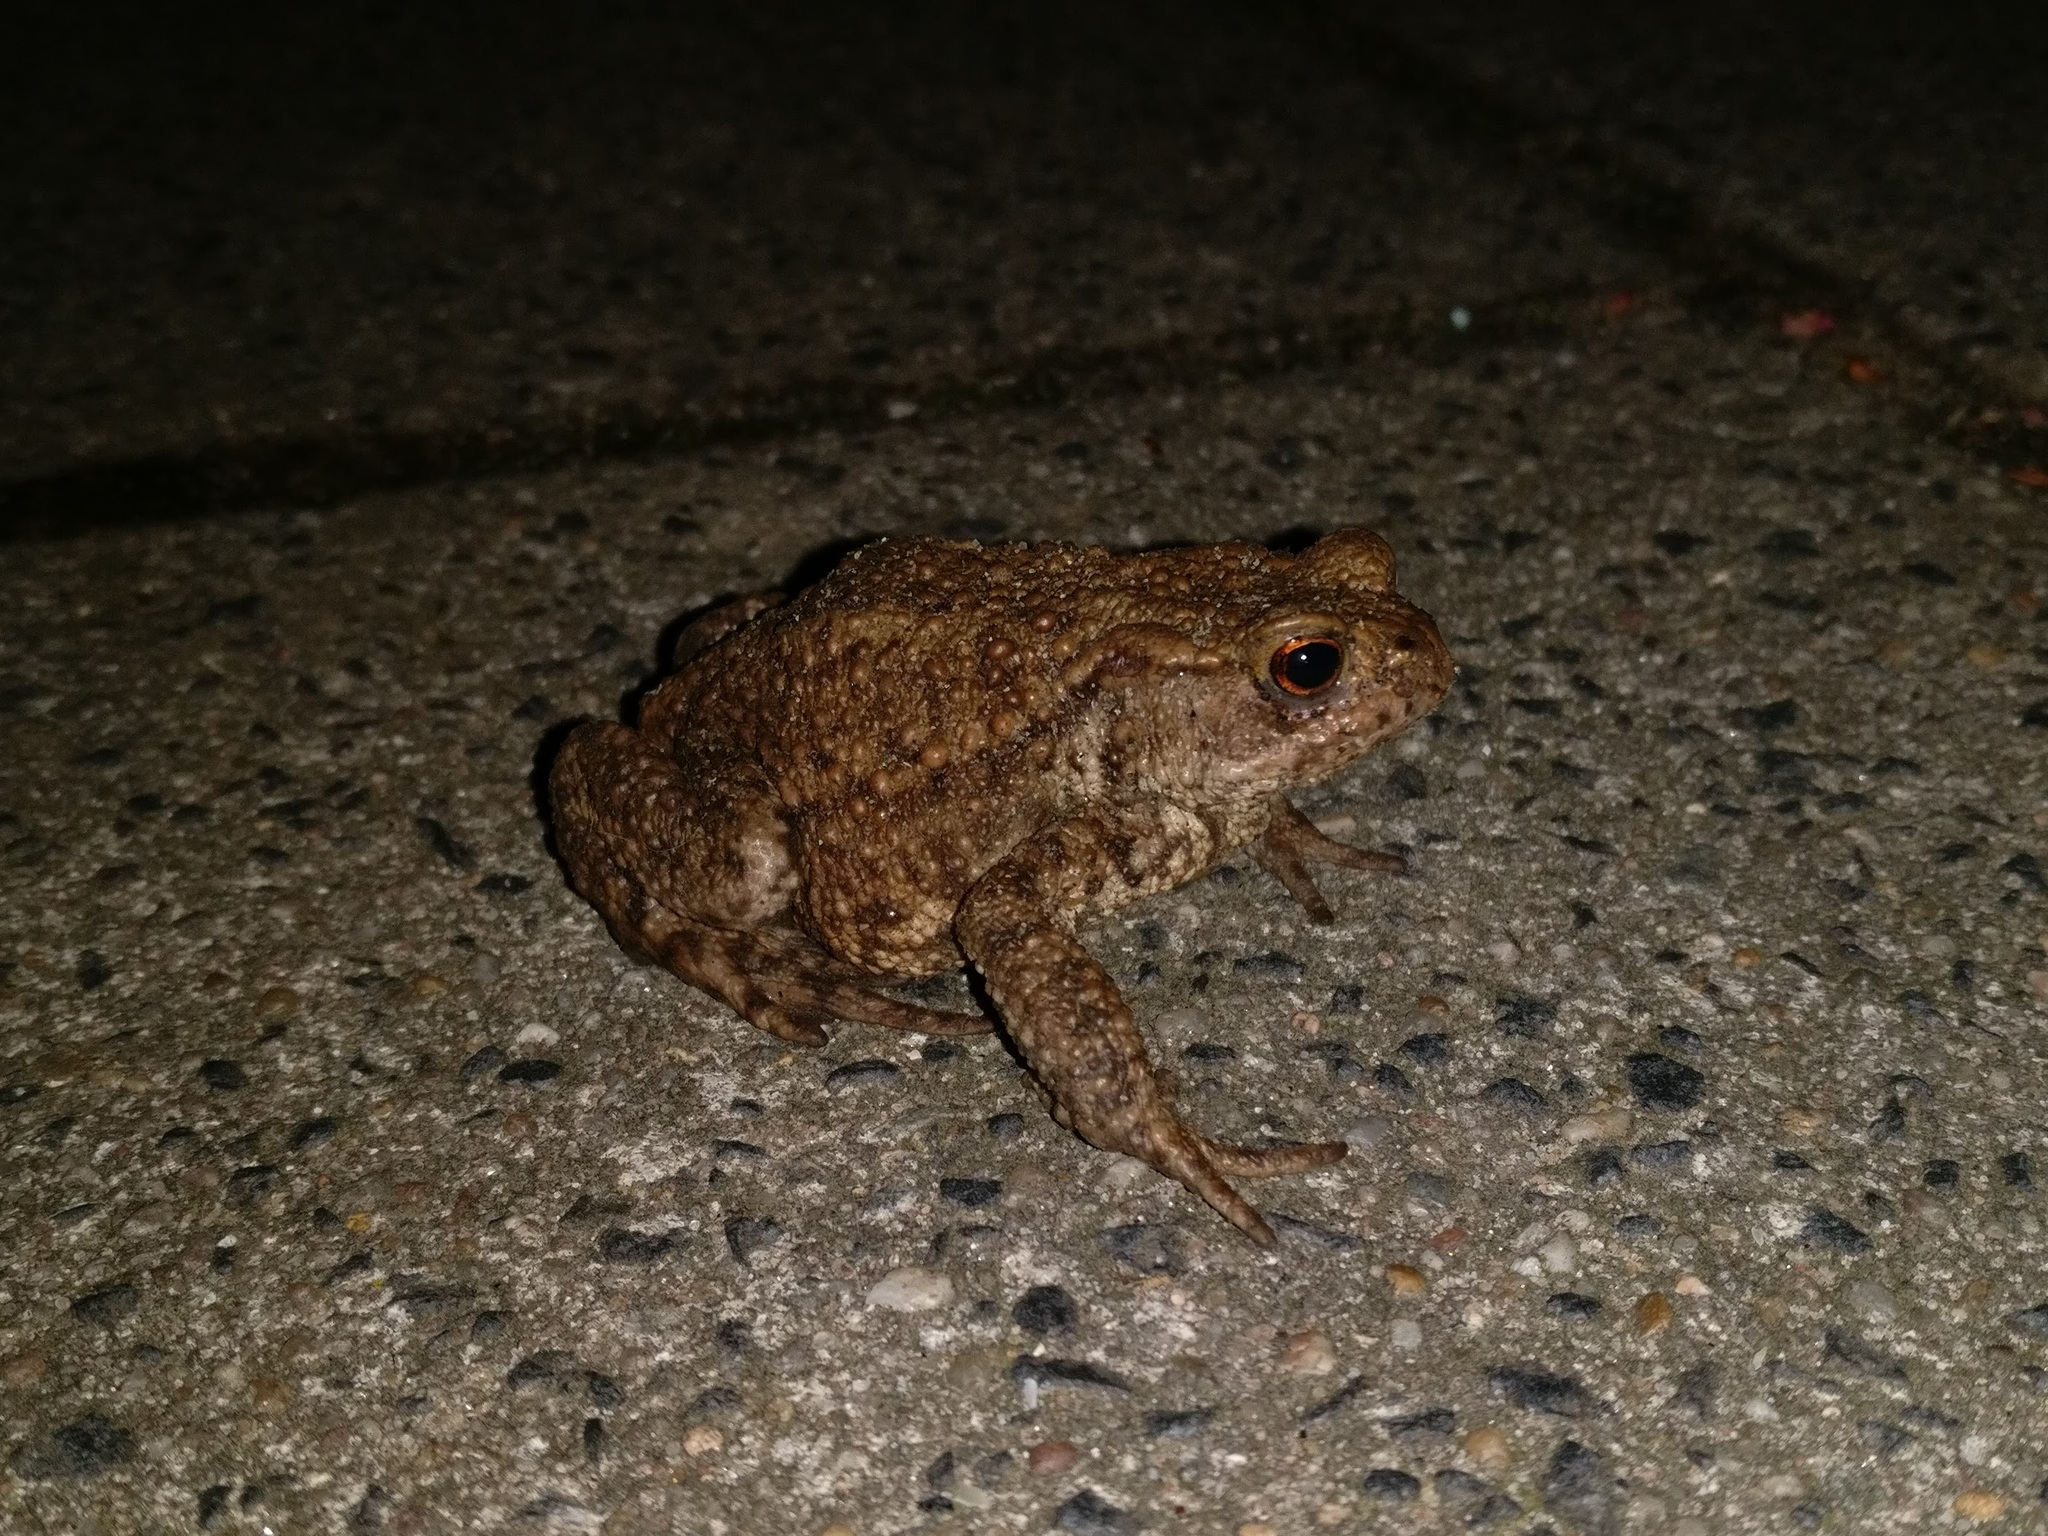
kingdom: Animalia
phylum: Chordata
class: Amphibia
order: Anura
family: Bufonidae
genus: Bufo
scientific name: Bufo bufo
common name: Common toad
